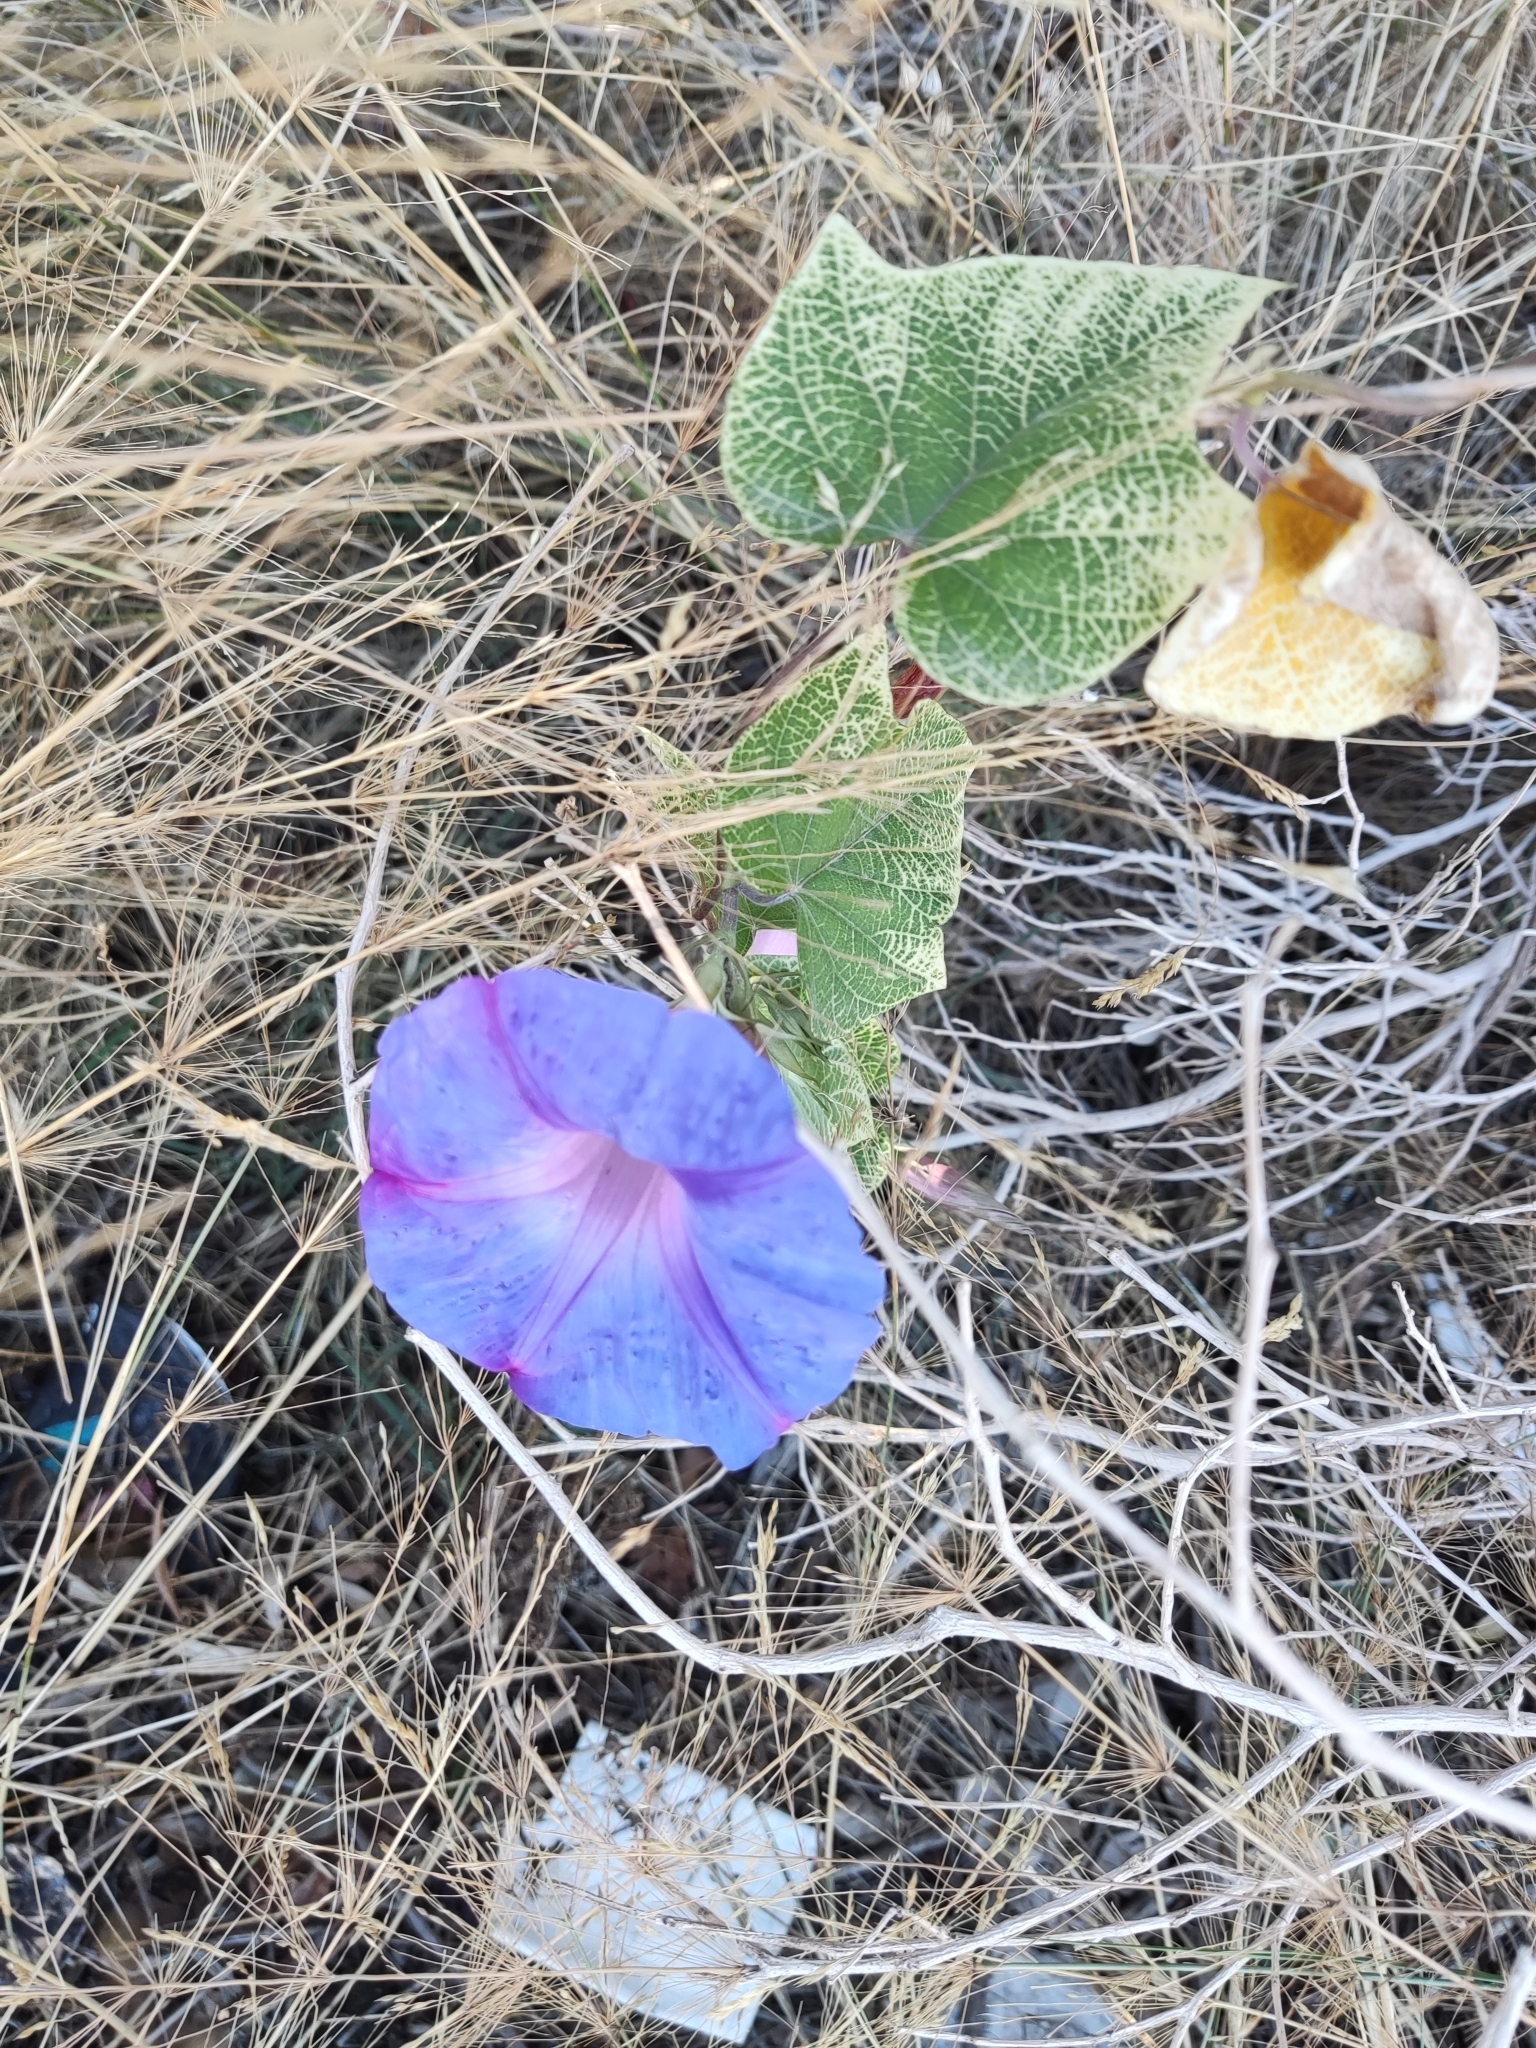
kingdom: Plantae
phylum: Tracheophyta
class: Magnoliopsida
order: Solanales
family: Convolvulaceae
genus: Ipomoea
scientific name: Ipomoea indica
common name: Blue dawnflower
